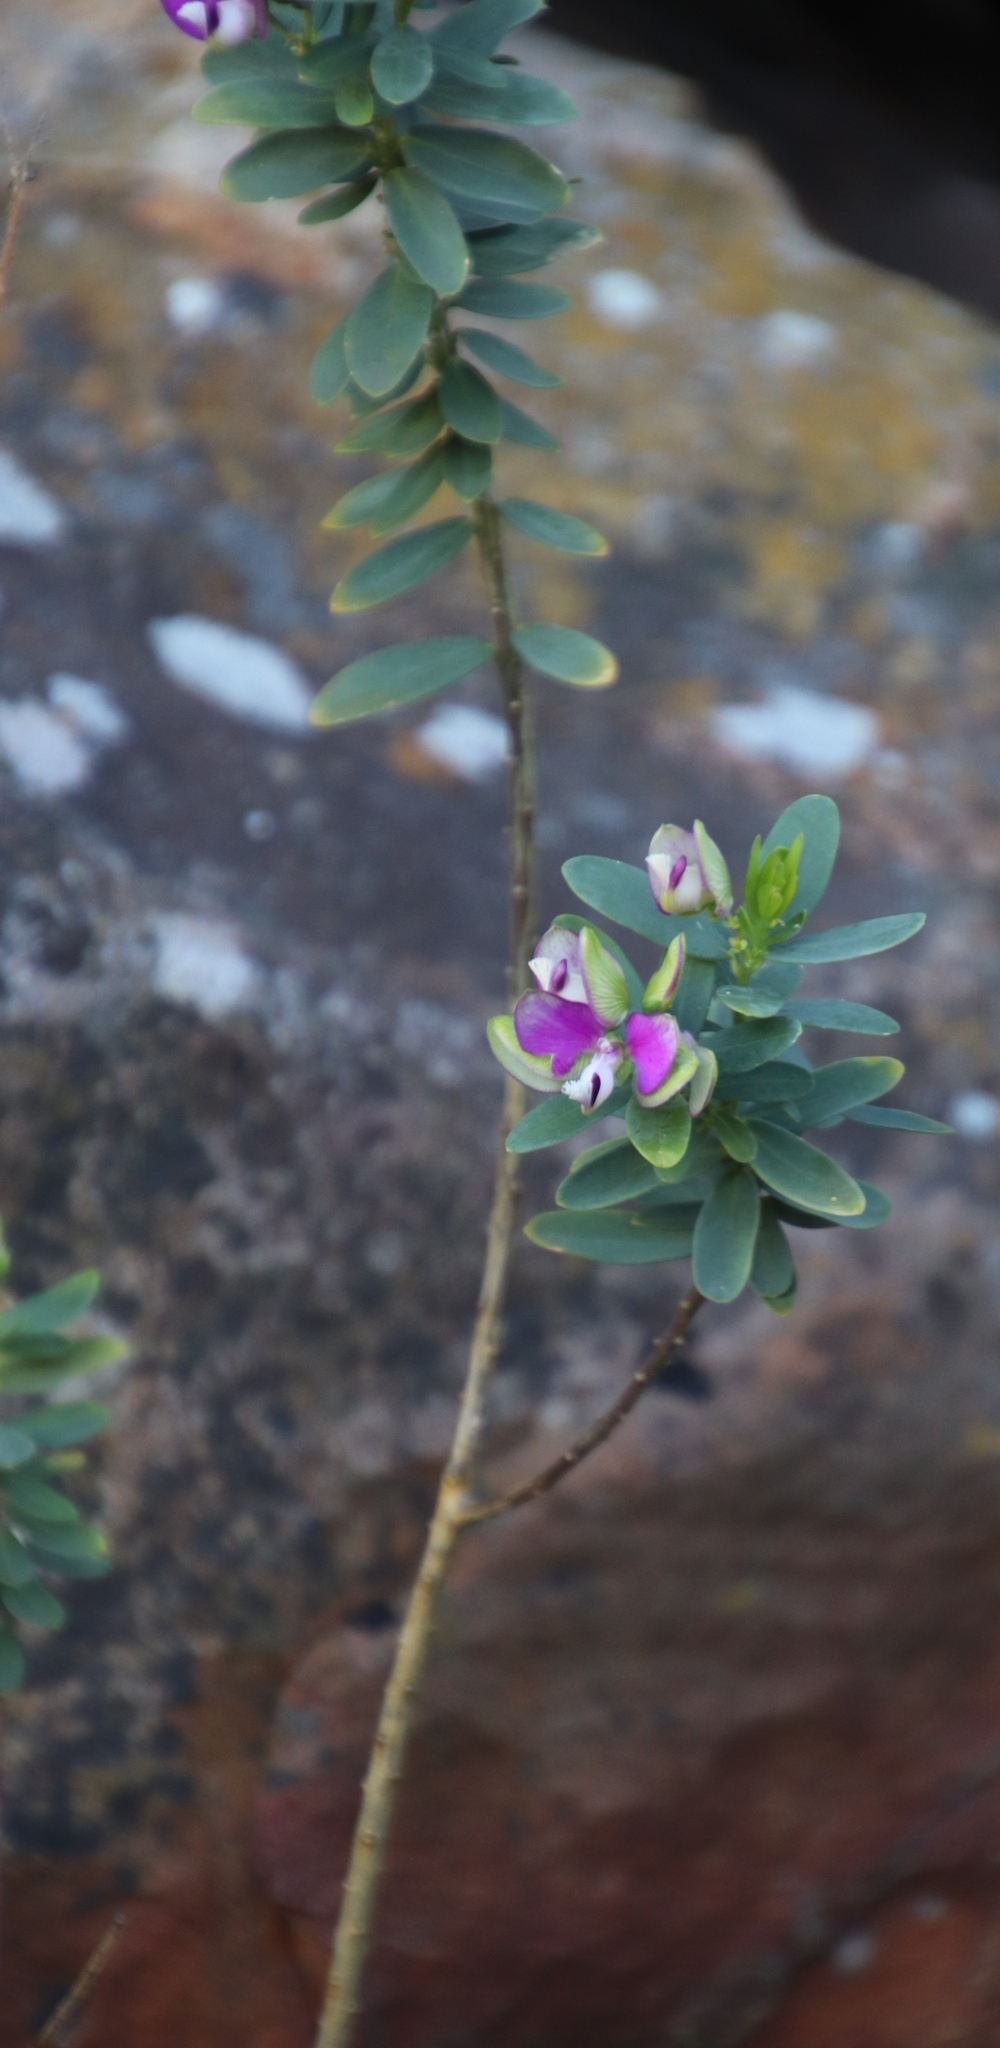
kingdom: Plantae
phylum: Tracheophyta
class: Magnoliopsida
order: Fabales
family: Polygalaceae
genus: Polygala
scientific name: Polygala myrtifolia
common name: Myrtle-leaf milkwort
